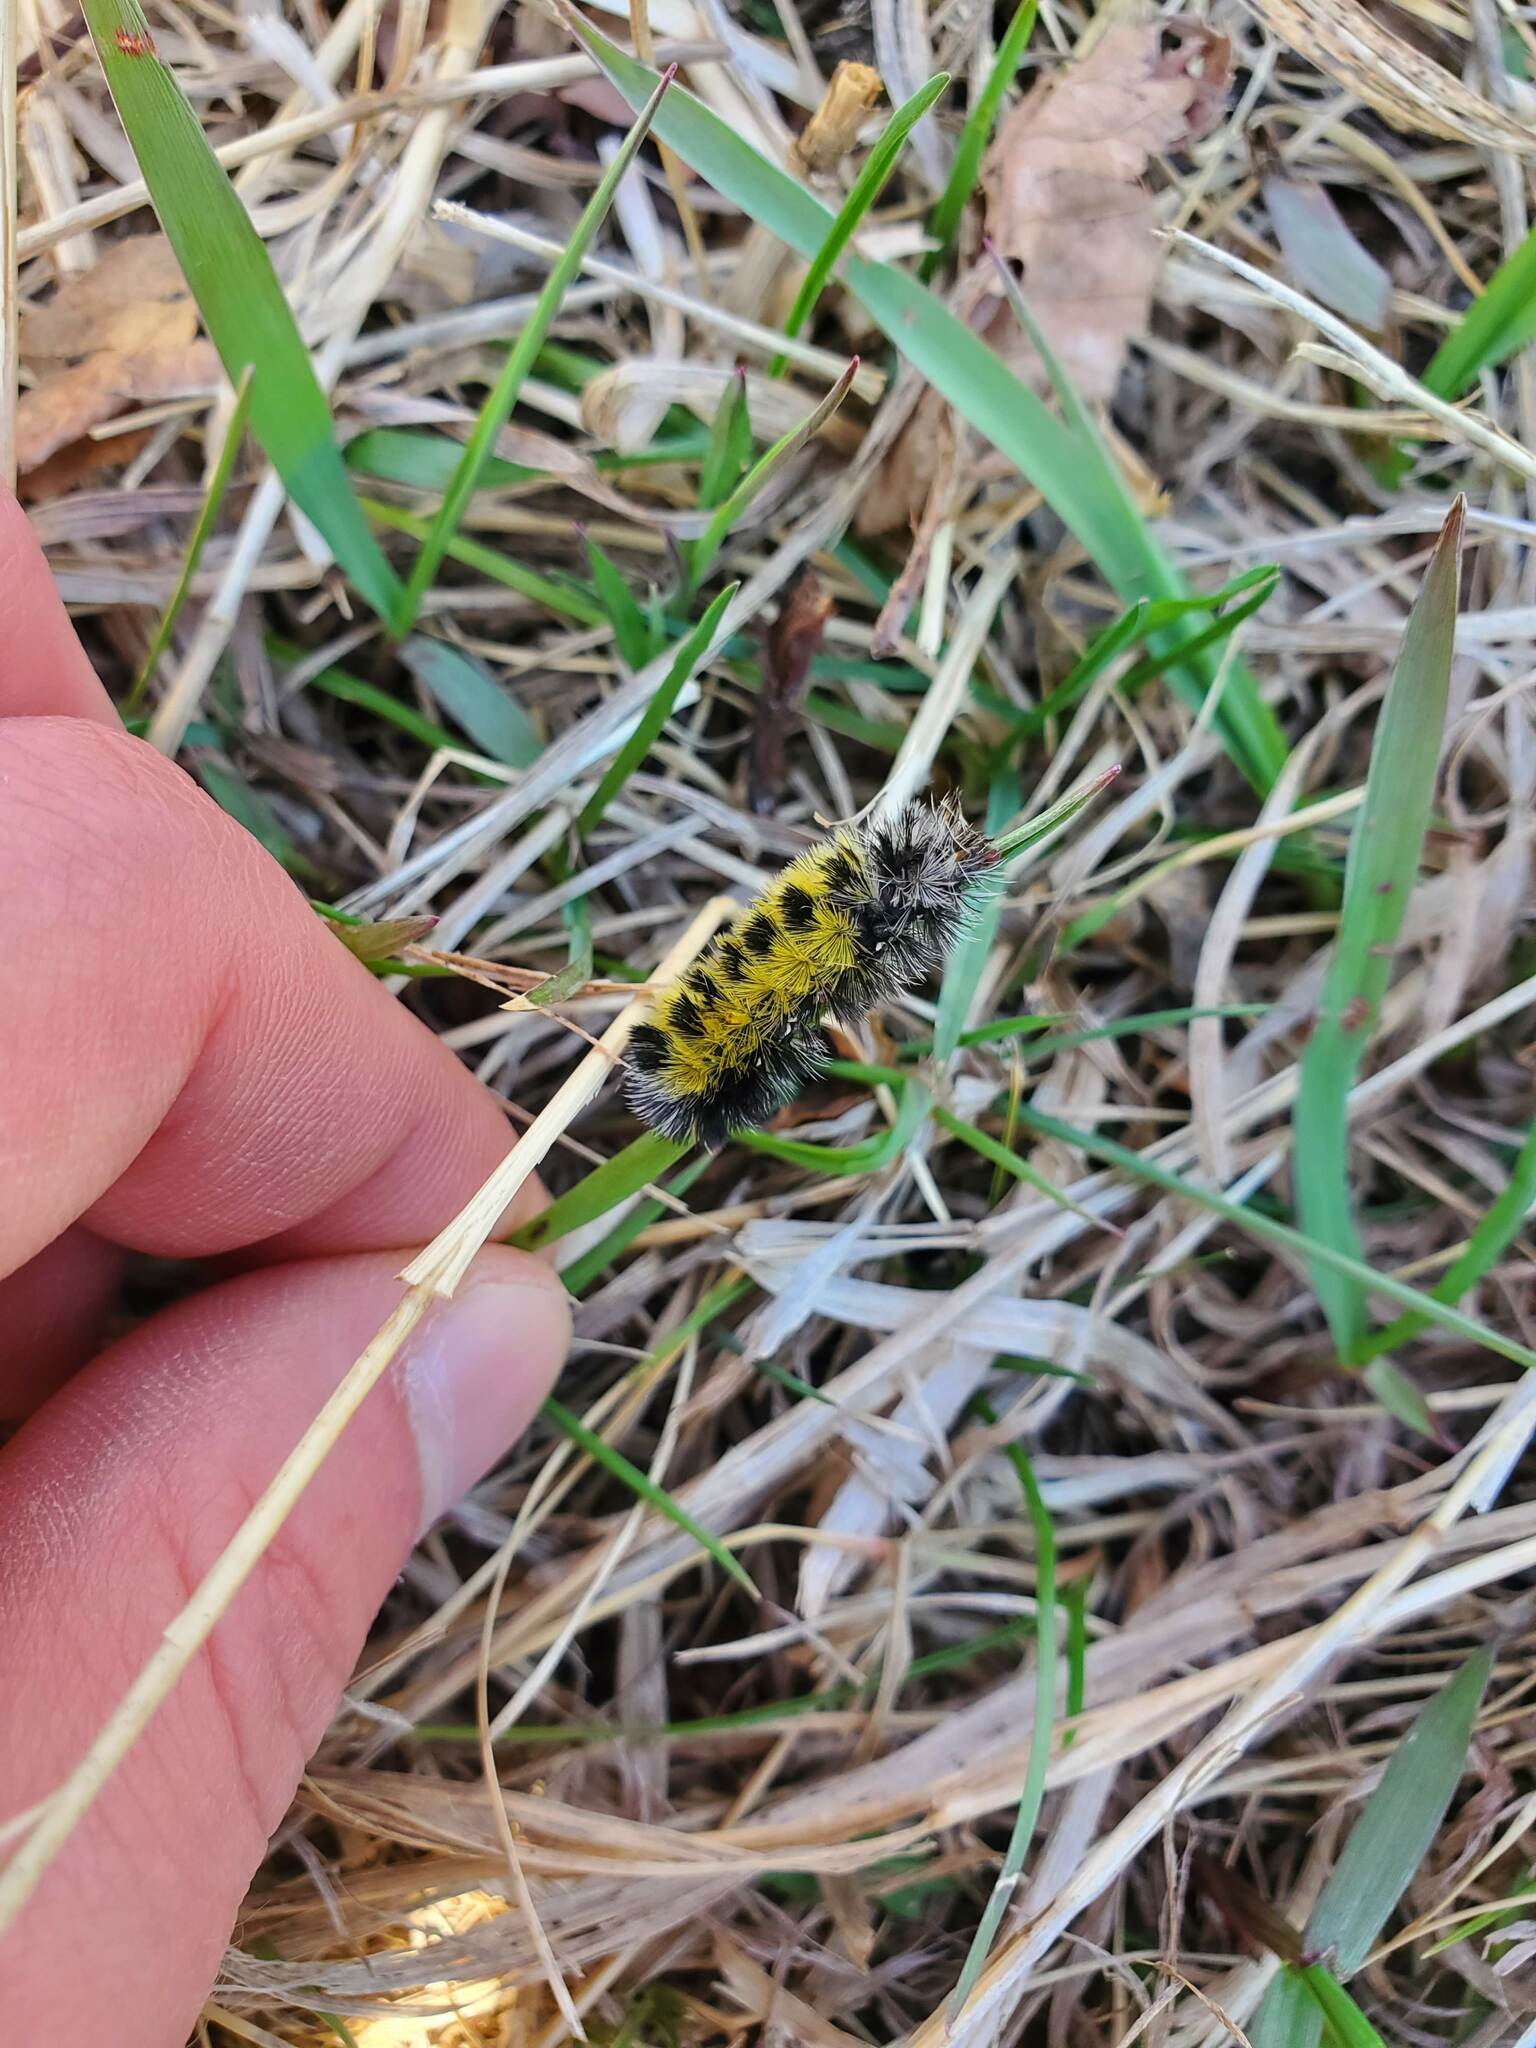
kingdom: Animalia
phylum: Arthropoda
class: Insecta
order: Lepidoptera
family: Erebidae
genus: Ctenucha
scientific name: Ctenucha virginica
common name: Virginia ctenucha moth
